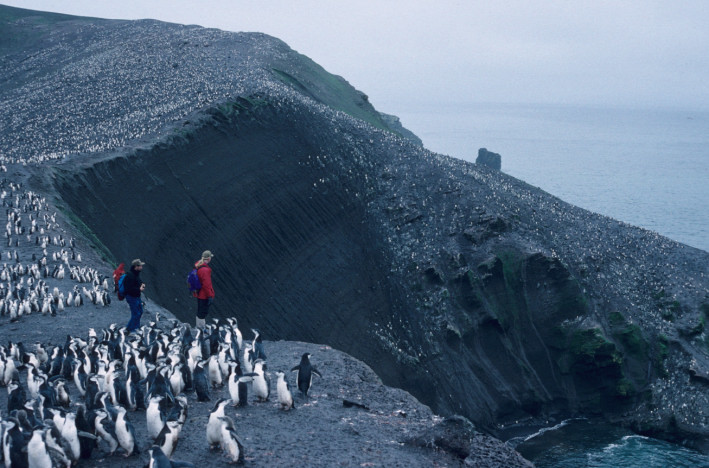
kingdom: Animalia
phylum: Chordata
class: Aves
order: Sphenisciformes
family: Spheniscidae
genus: Pygoscelis
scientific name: Pygoscelis antarcticus
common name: Chinstrap penguin
